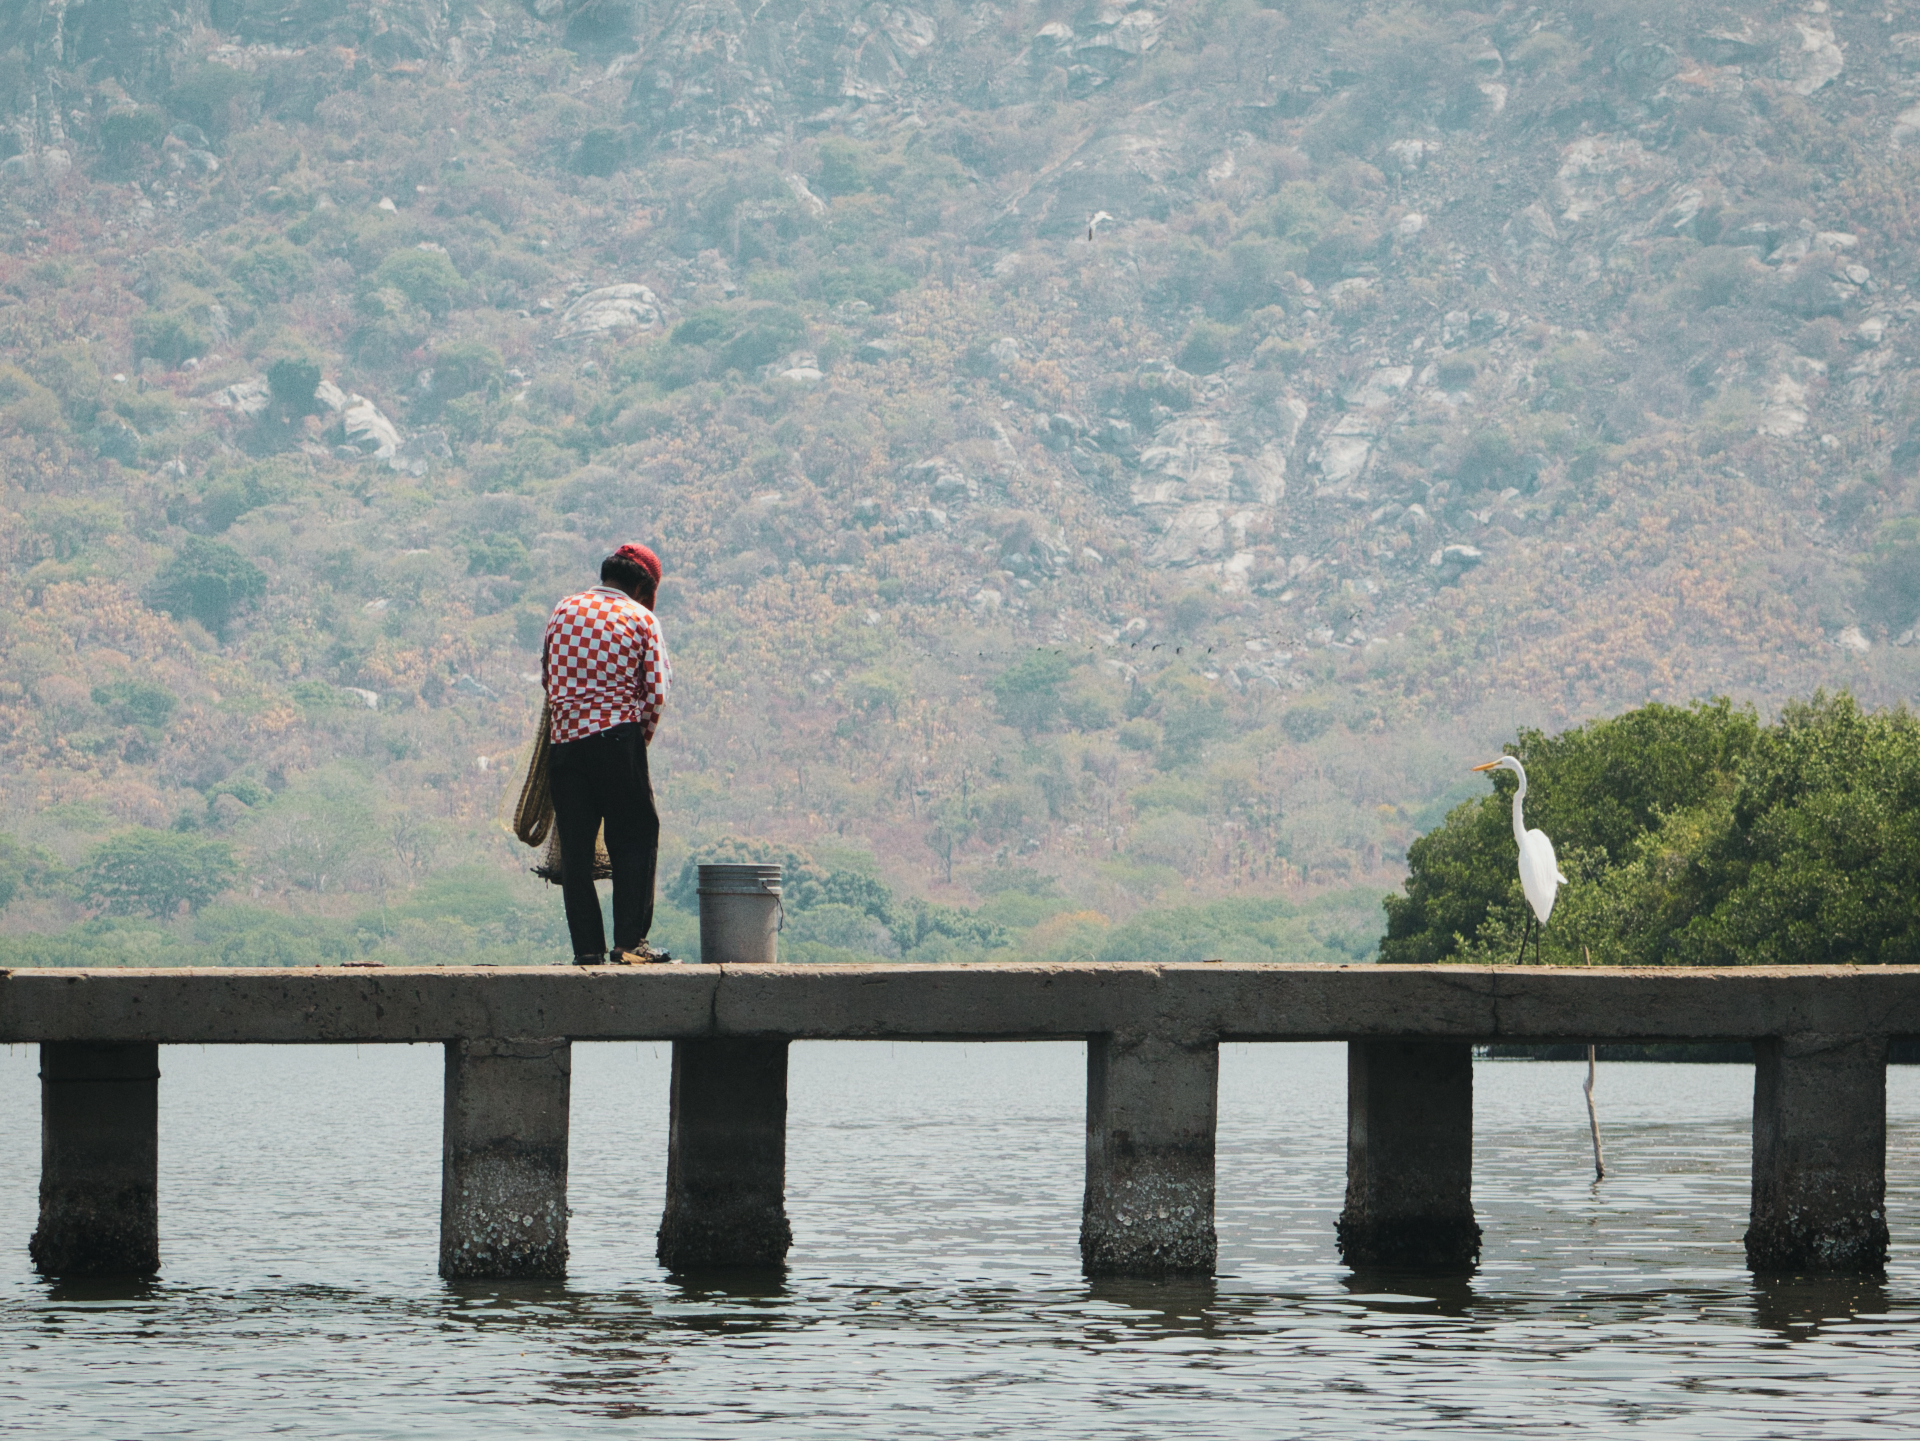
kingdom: Animalia
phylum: Chordata
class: Aves
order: Pelecaniformes
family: Ardeidae
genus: Ardea
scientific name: Ardea alba
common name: Great egret
